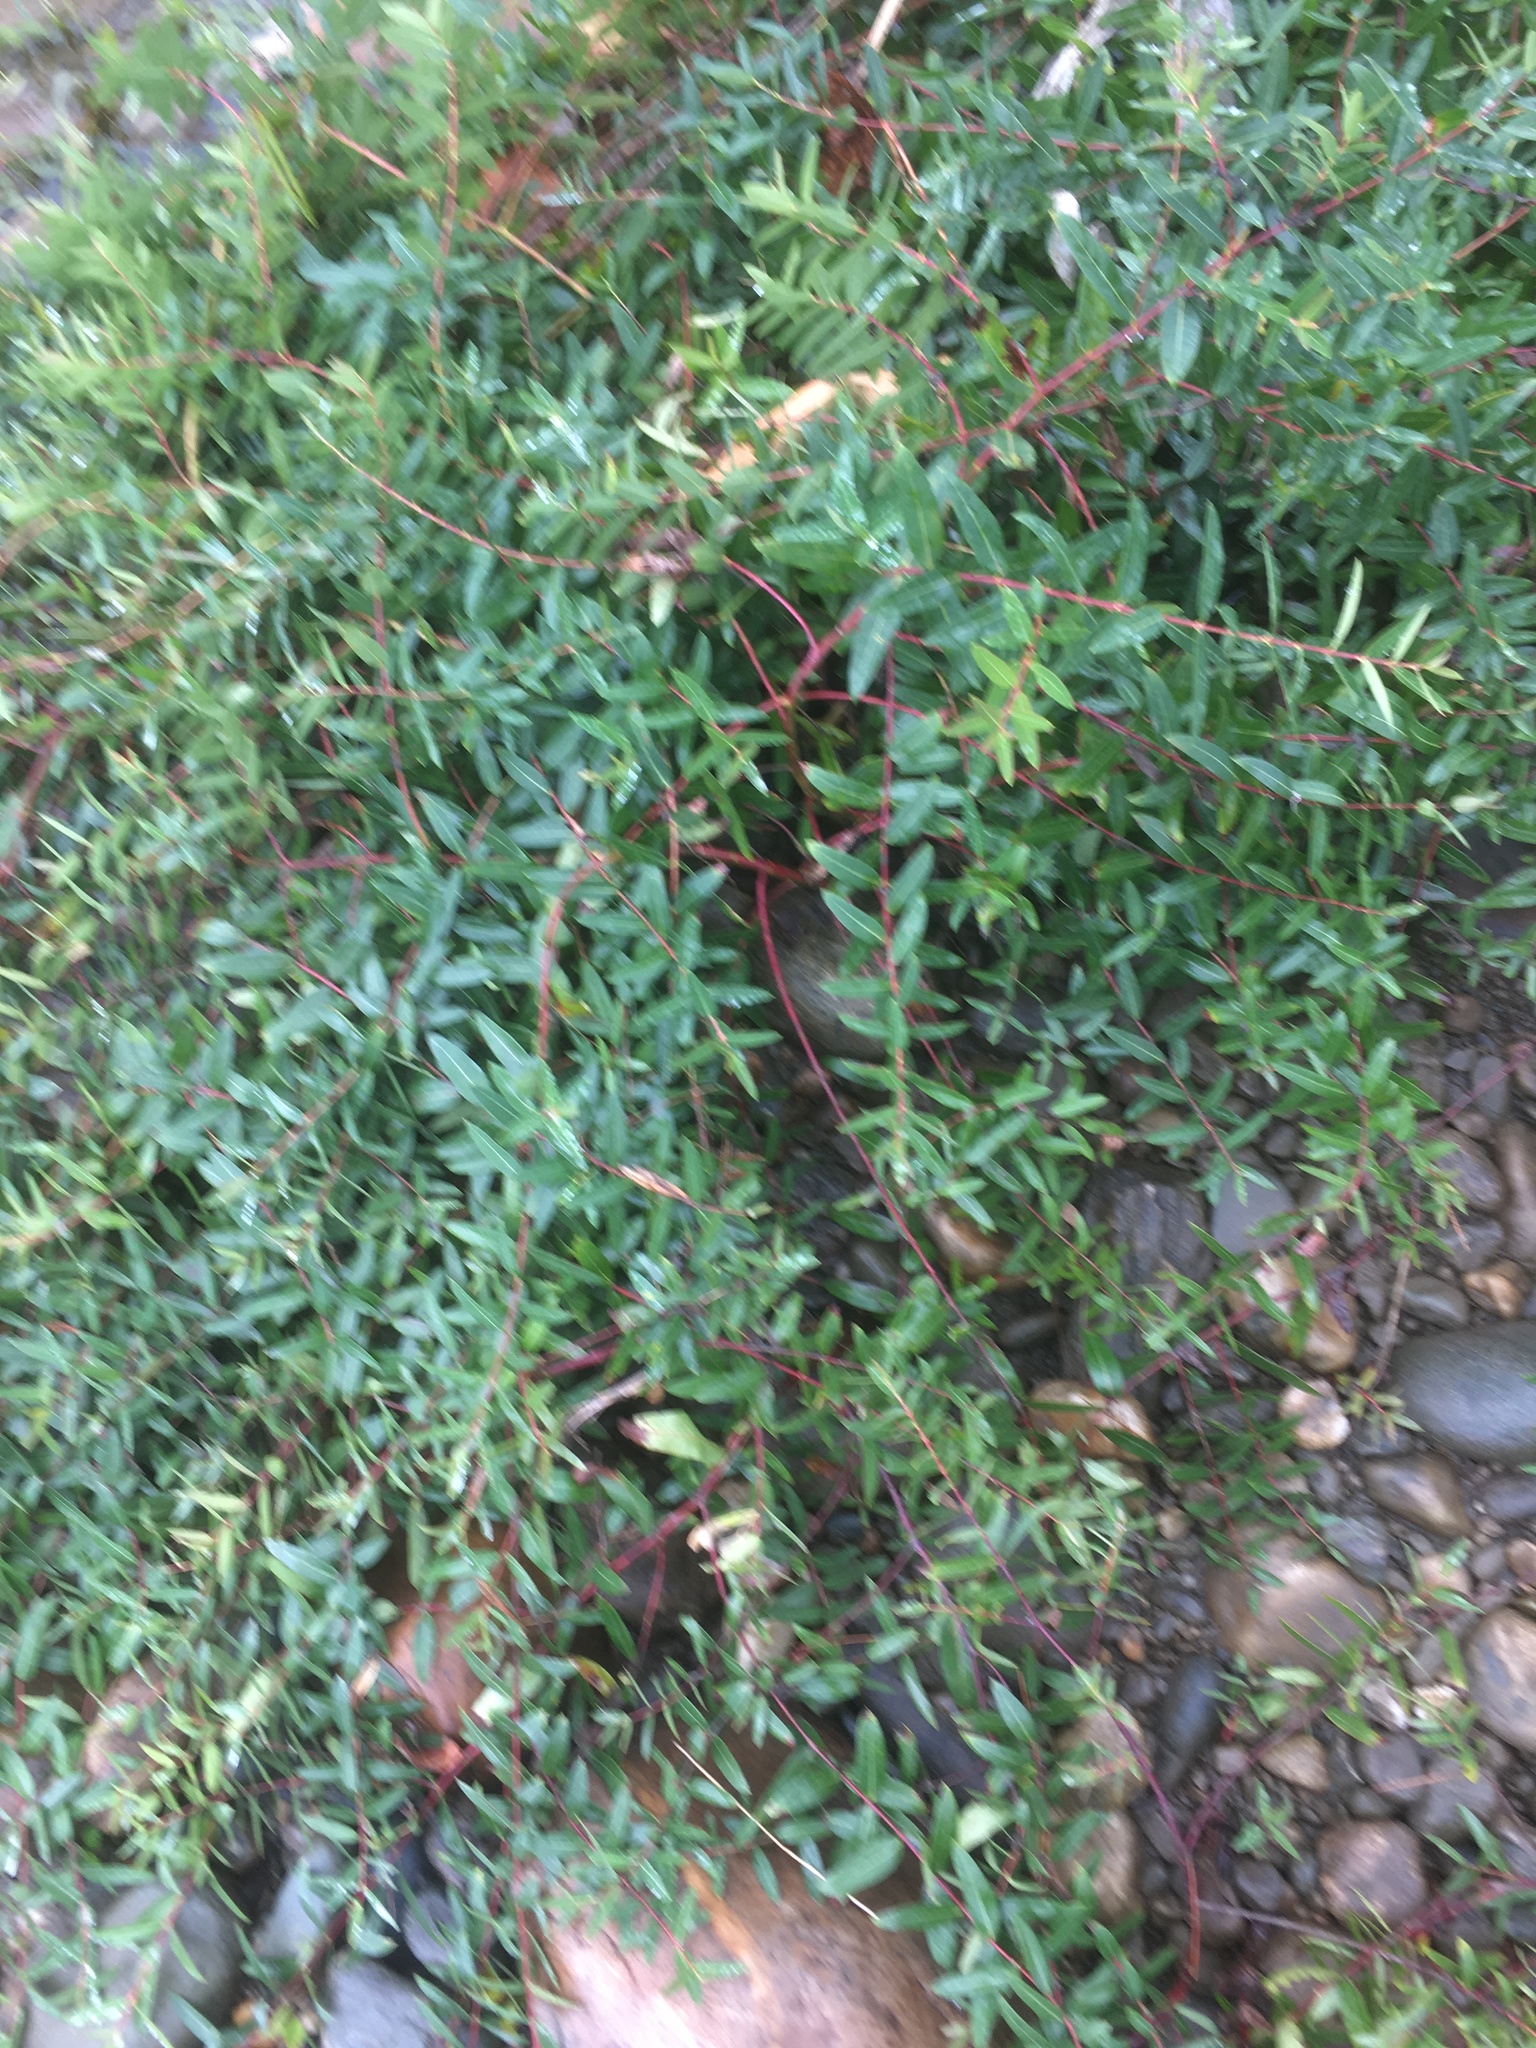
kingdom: Plantae
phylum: Tracheophyta
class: Magnoliopsida
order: Gentianales
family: Apocynaceae
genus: Apocynum
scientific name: Apocynum cannabinum
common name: Hemp dogbane
